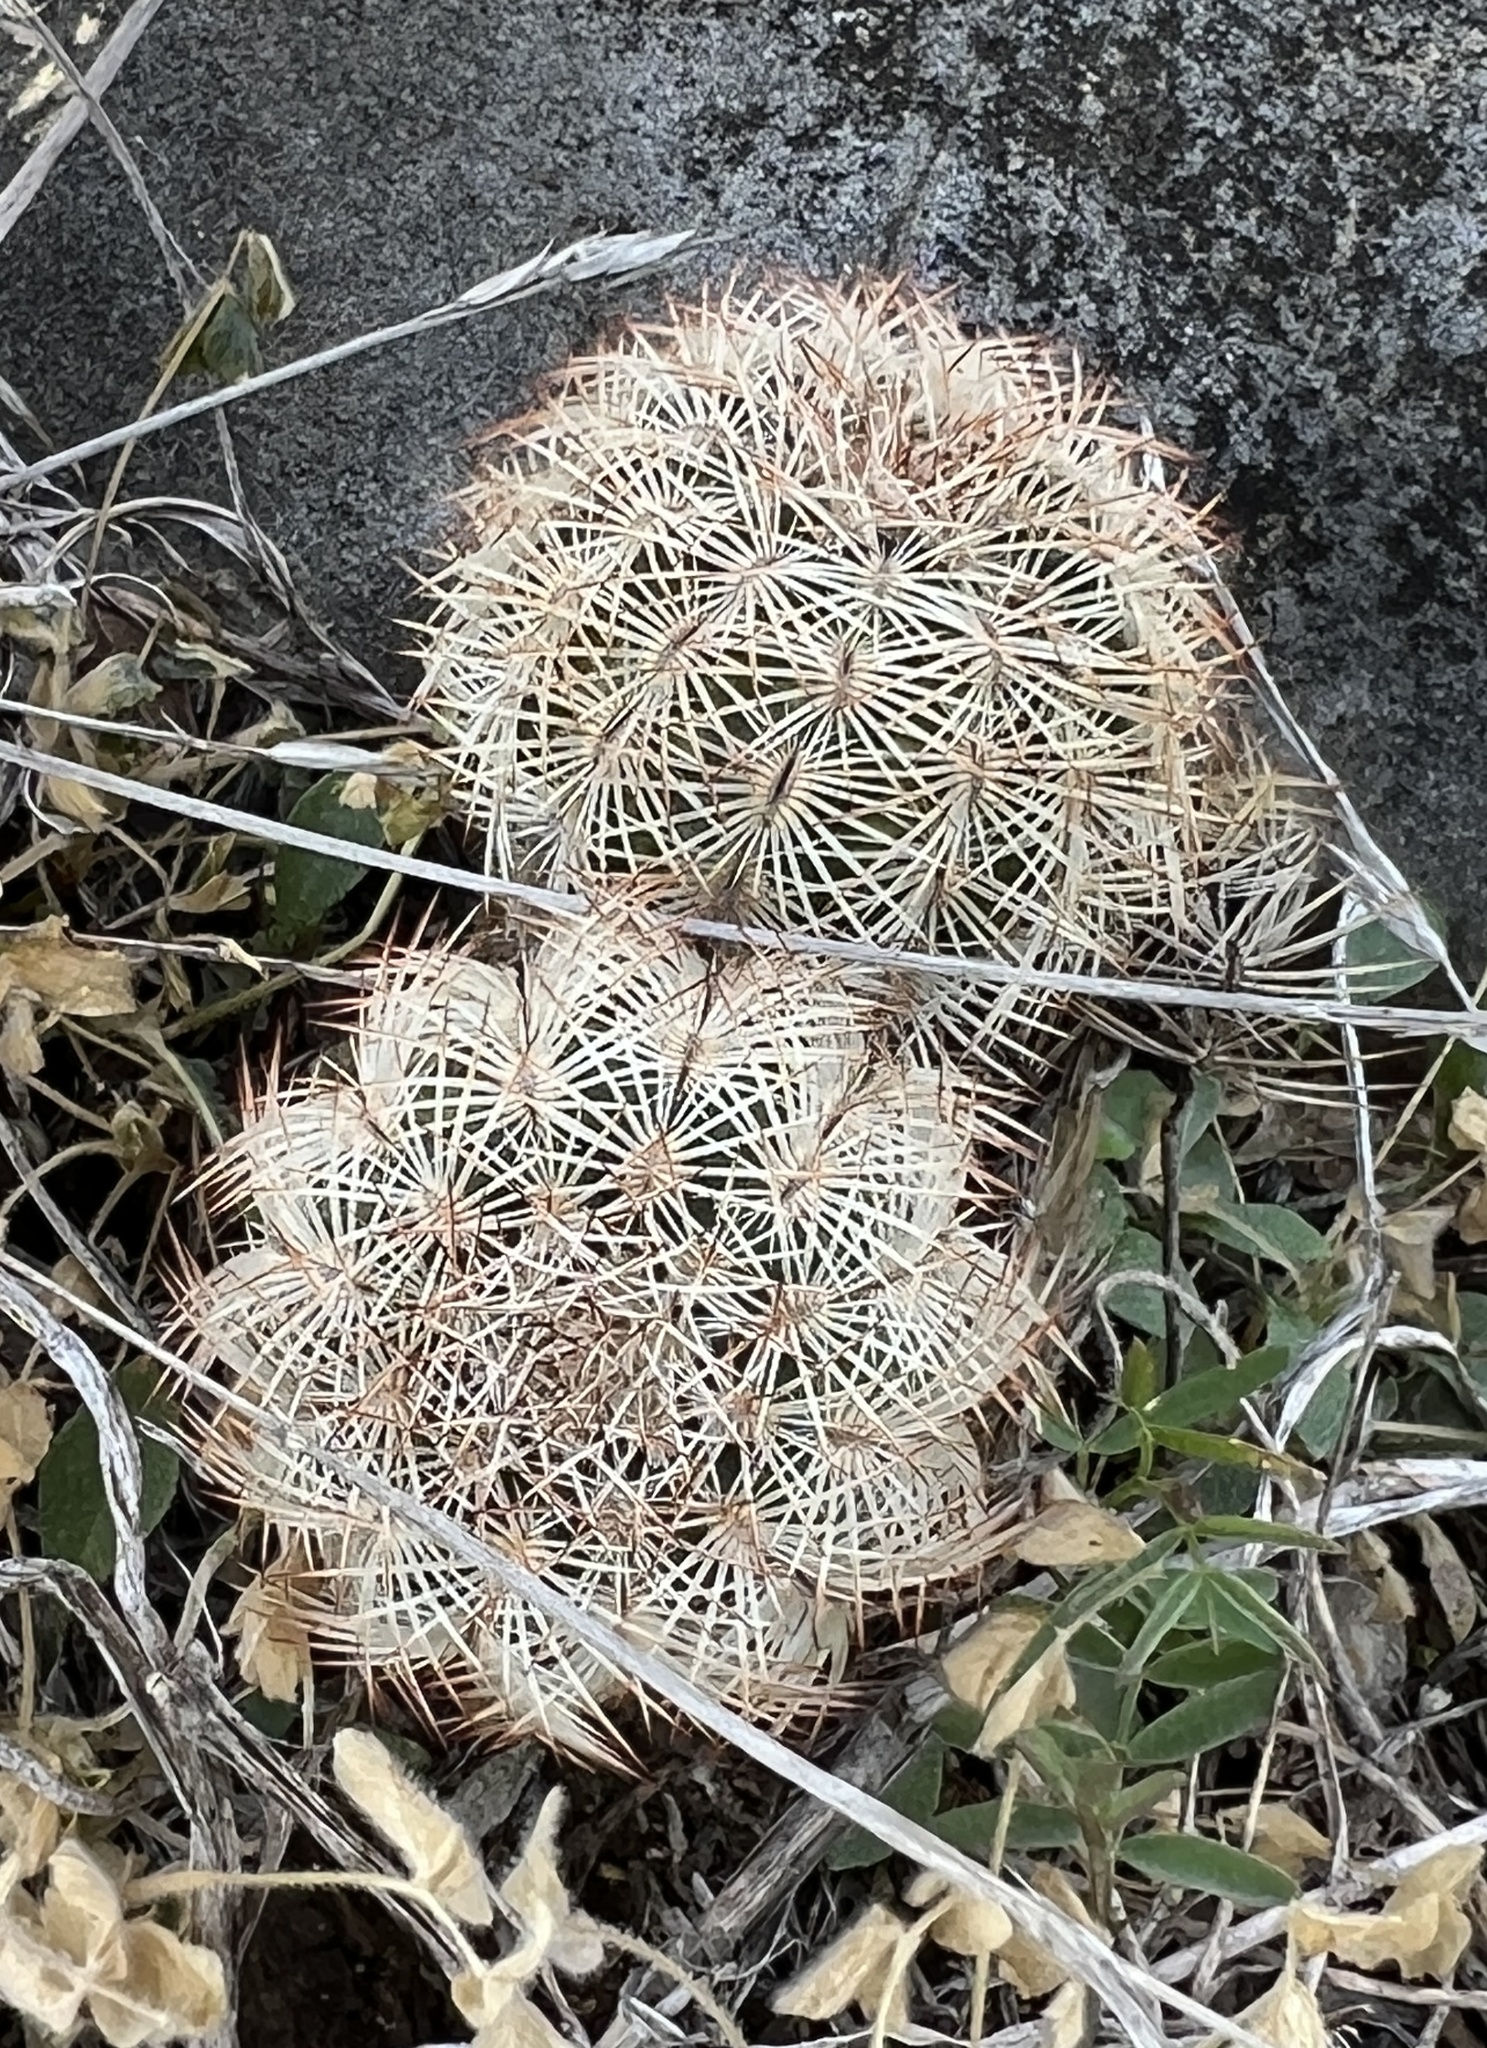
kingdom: Plantae
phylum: Tracheophyta
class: Magnoliopsida
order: Caryophyllales
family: Cactaceae
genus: Echinocereus
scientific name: Echinocereus reichenbachii
